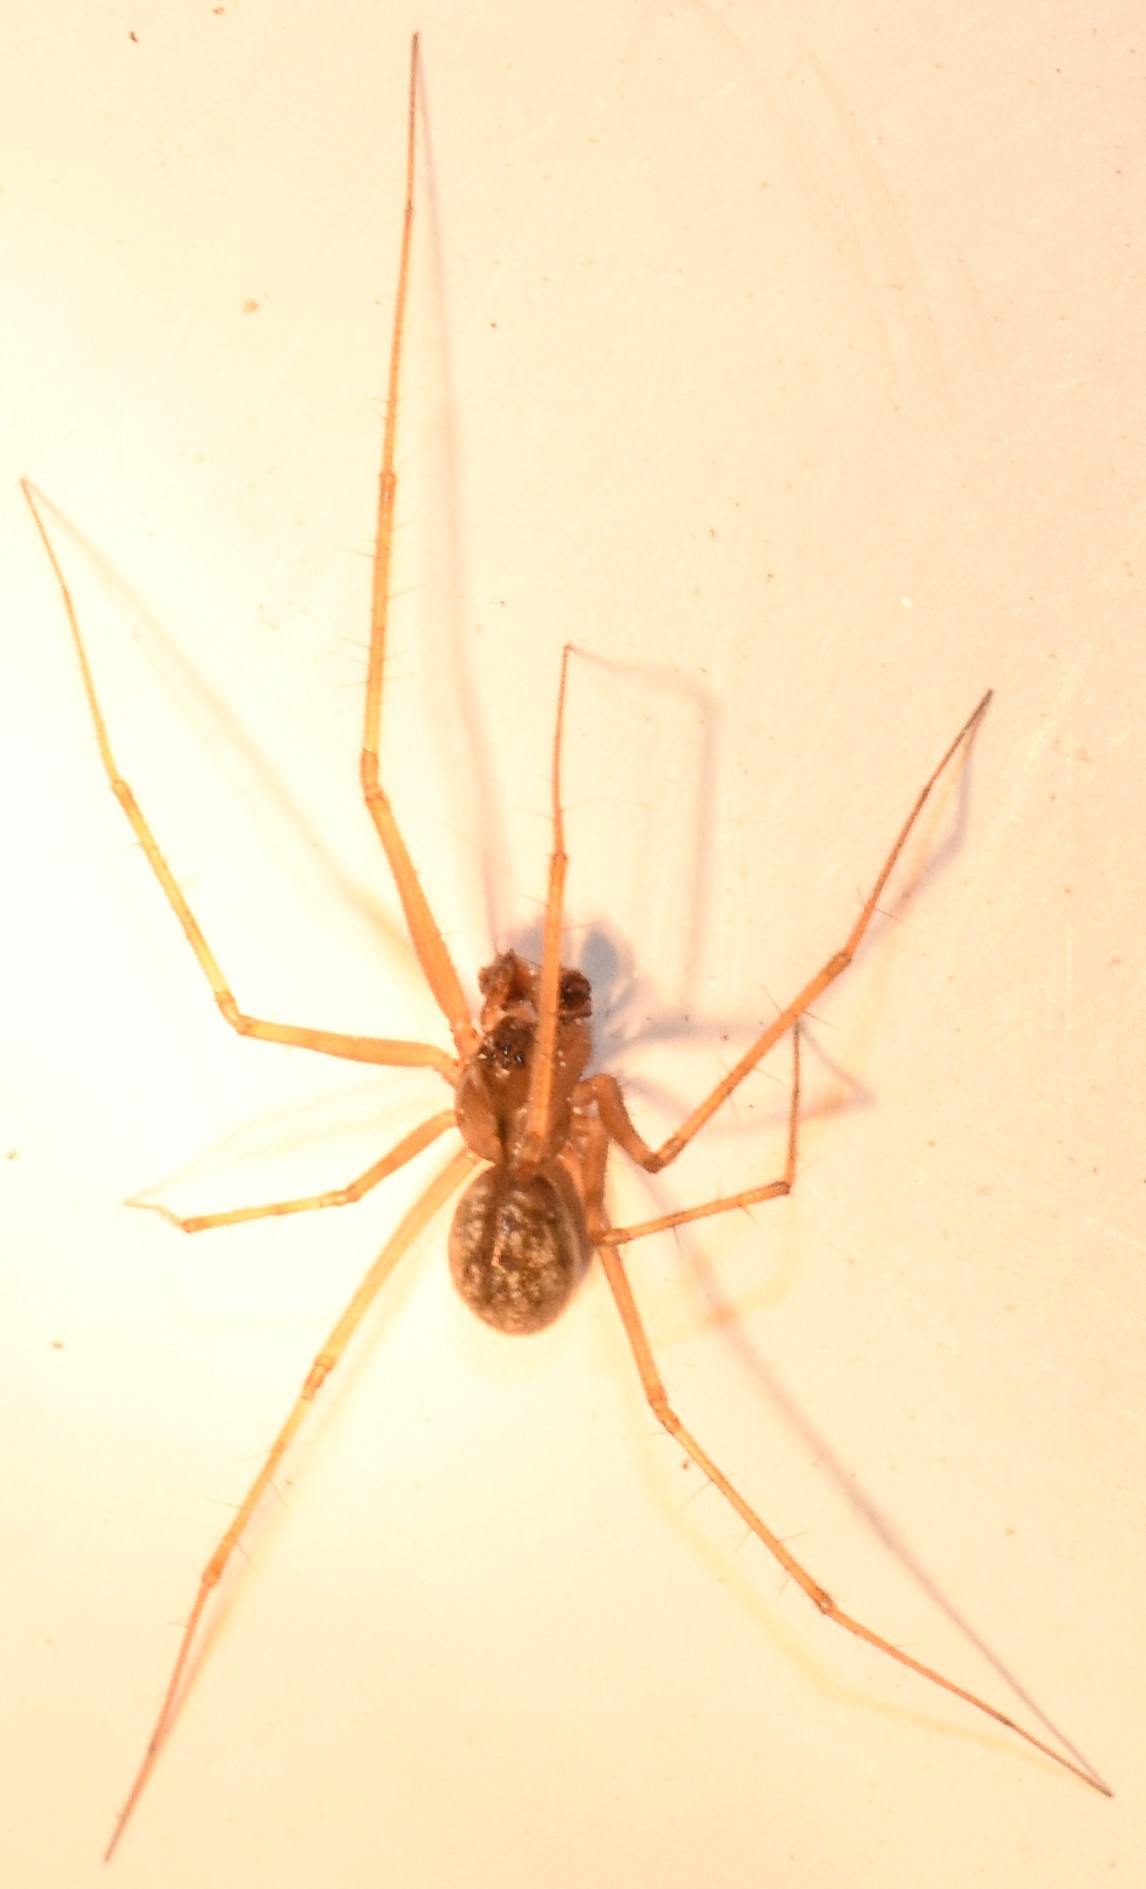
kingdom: Animalia
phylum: Arthropoda
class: Arachnida
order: Araneae
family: Linyphiidae
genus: Megalepthyphantes
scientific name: Megalepthyphantes nebulosus
